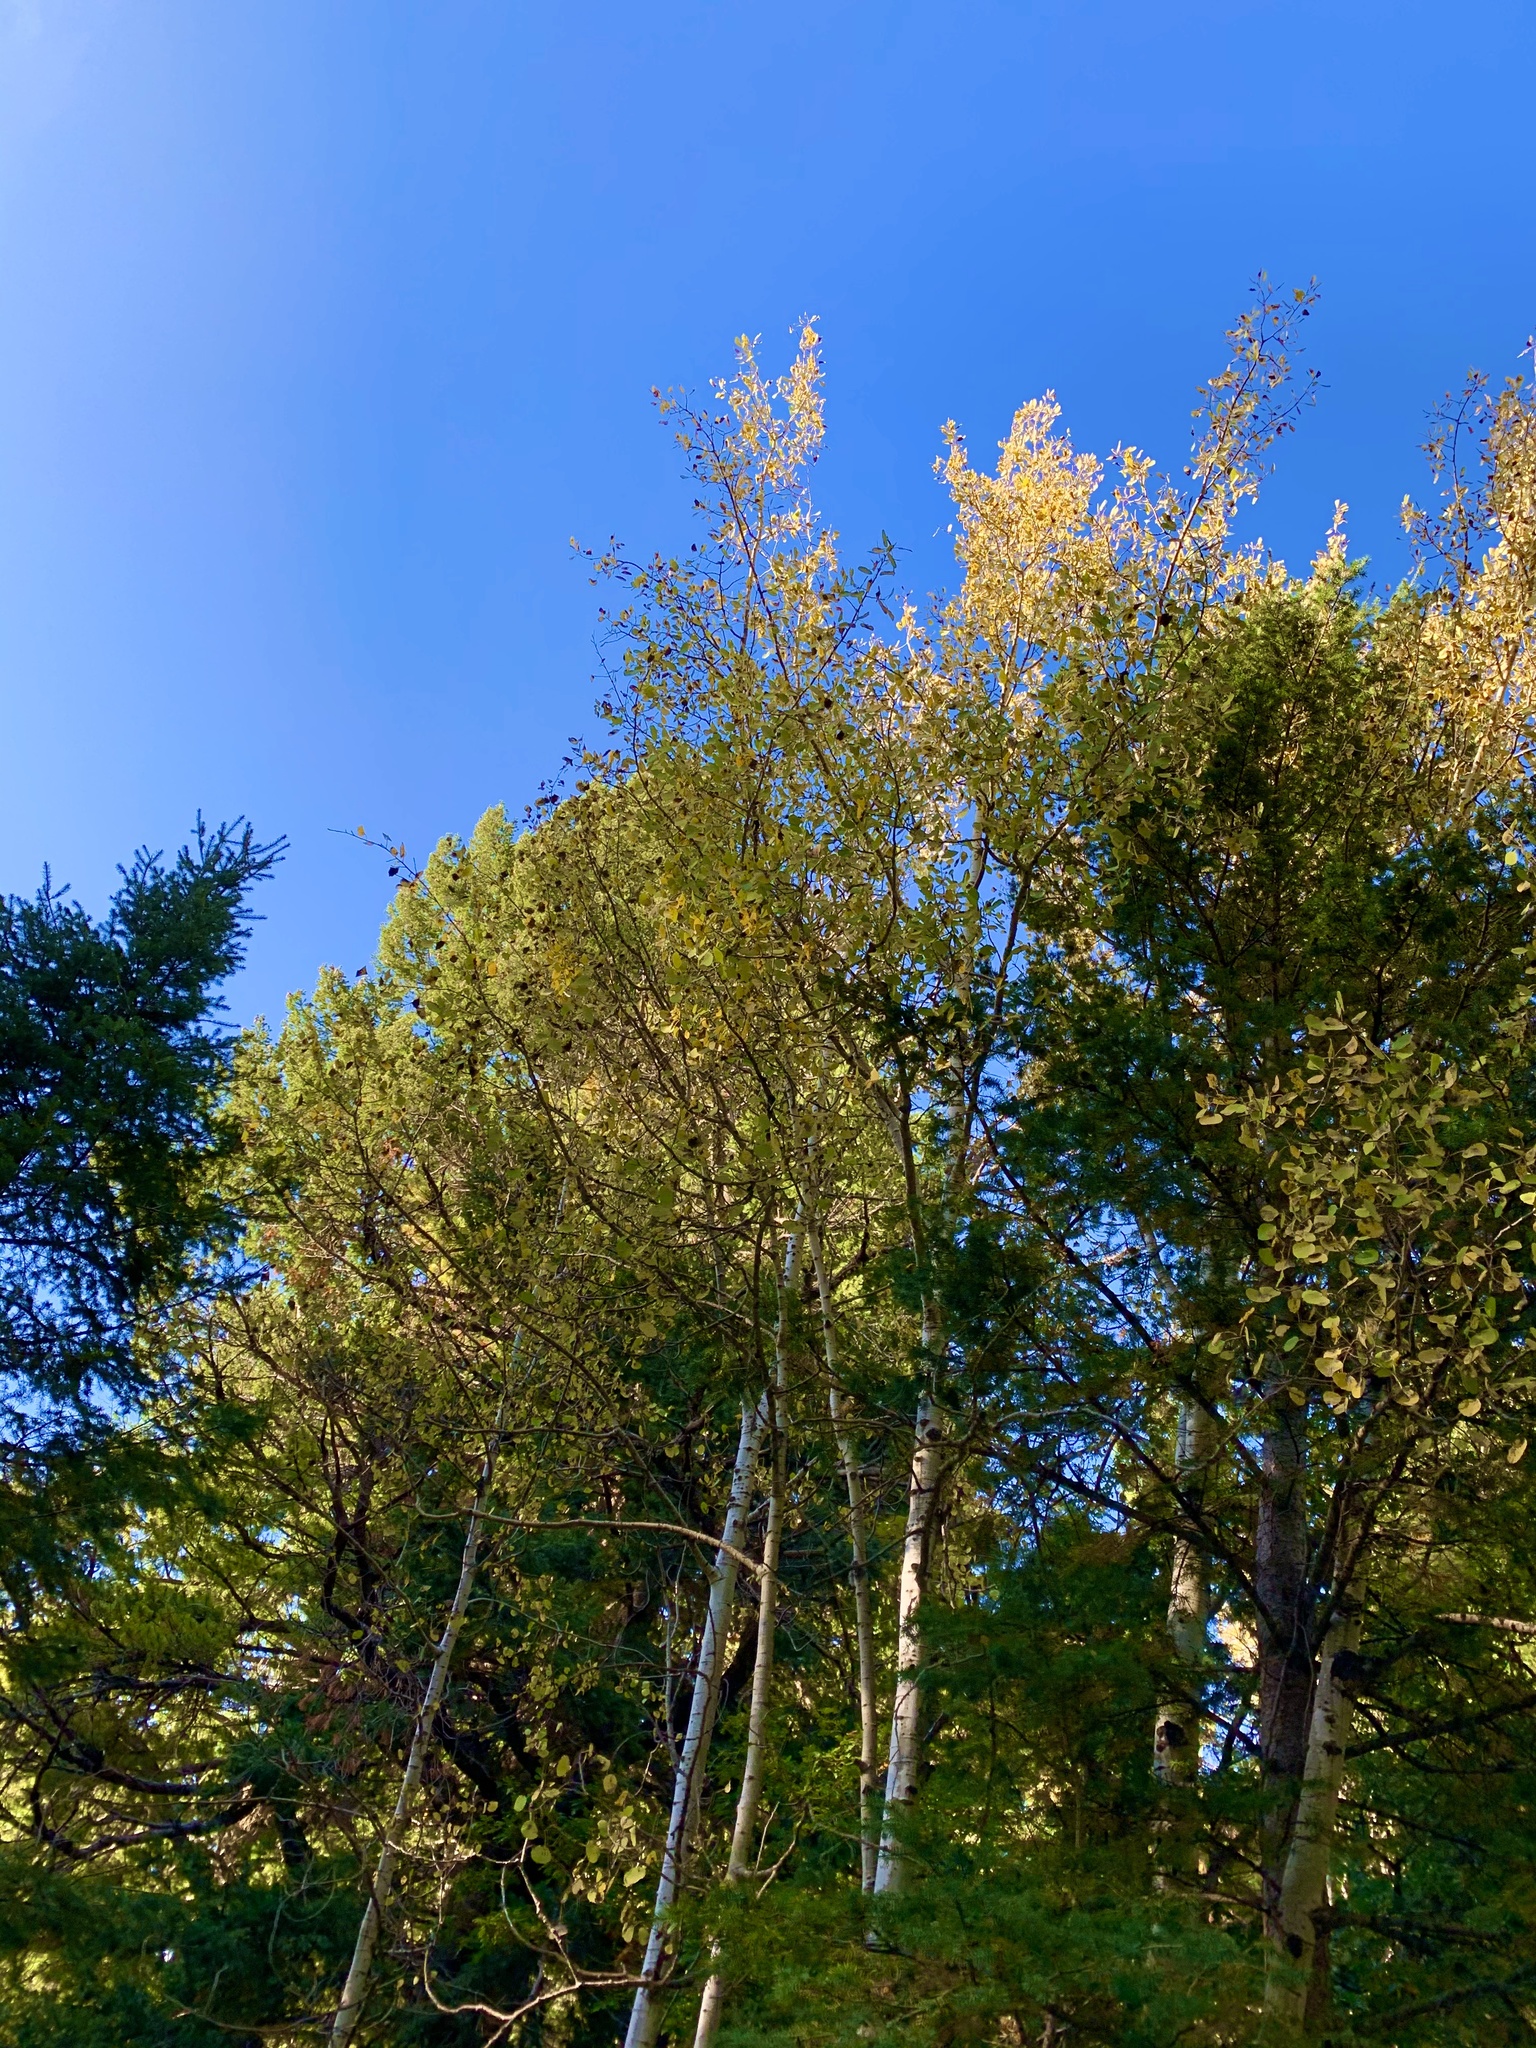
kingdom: Plantae
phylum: Tracheophyta
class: Magnoliopsida
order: Malpighiales
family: Salicaceae
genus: Populus
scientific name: Populus tremuloides
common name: Quaking aspen
